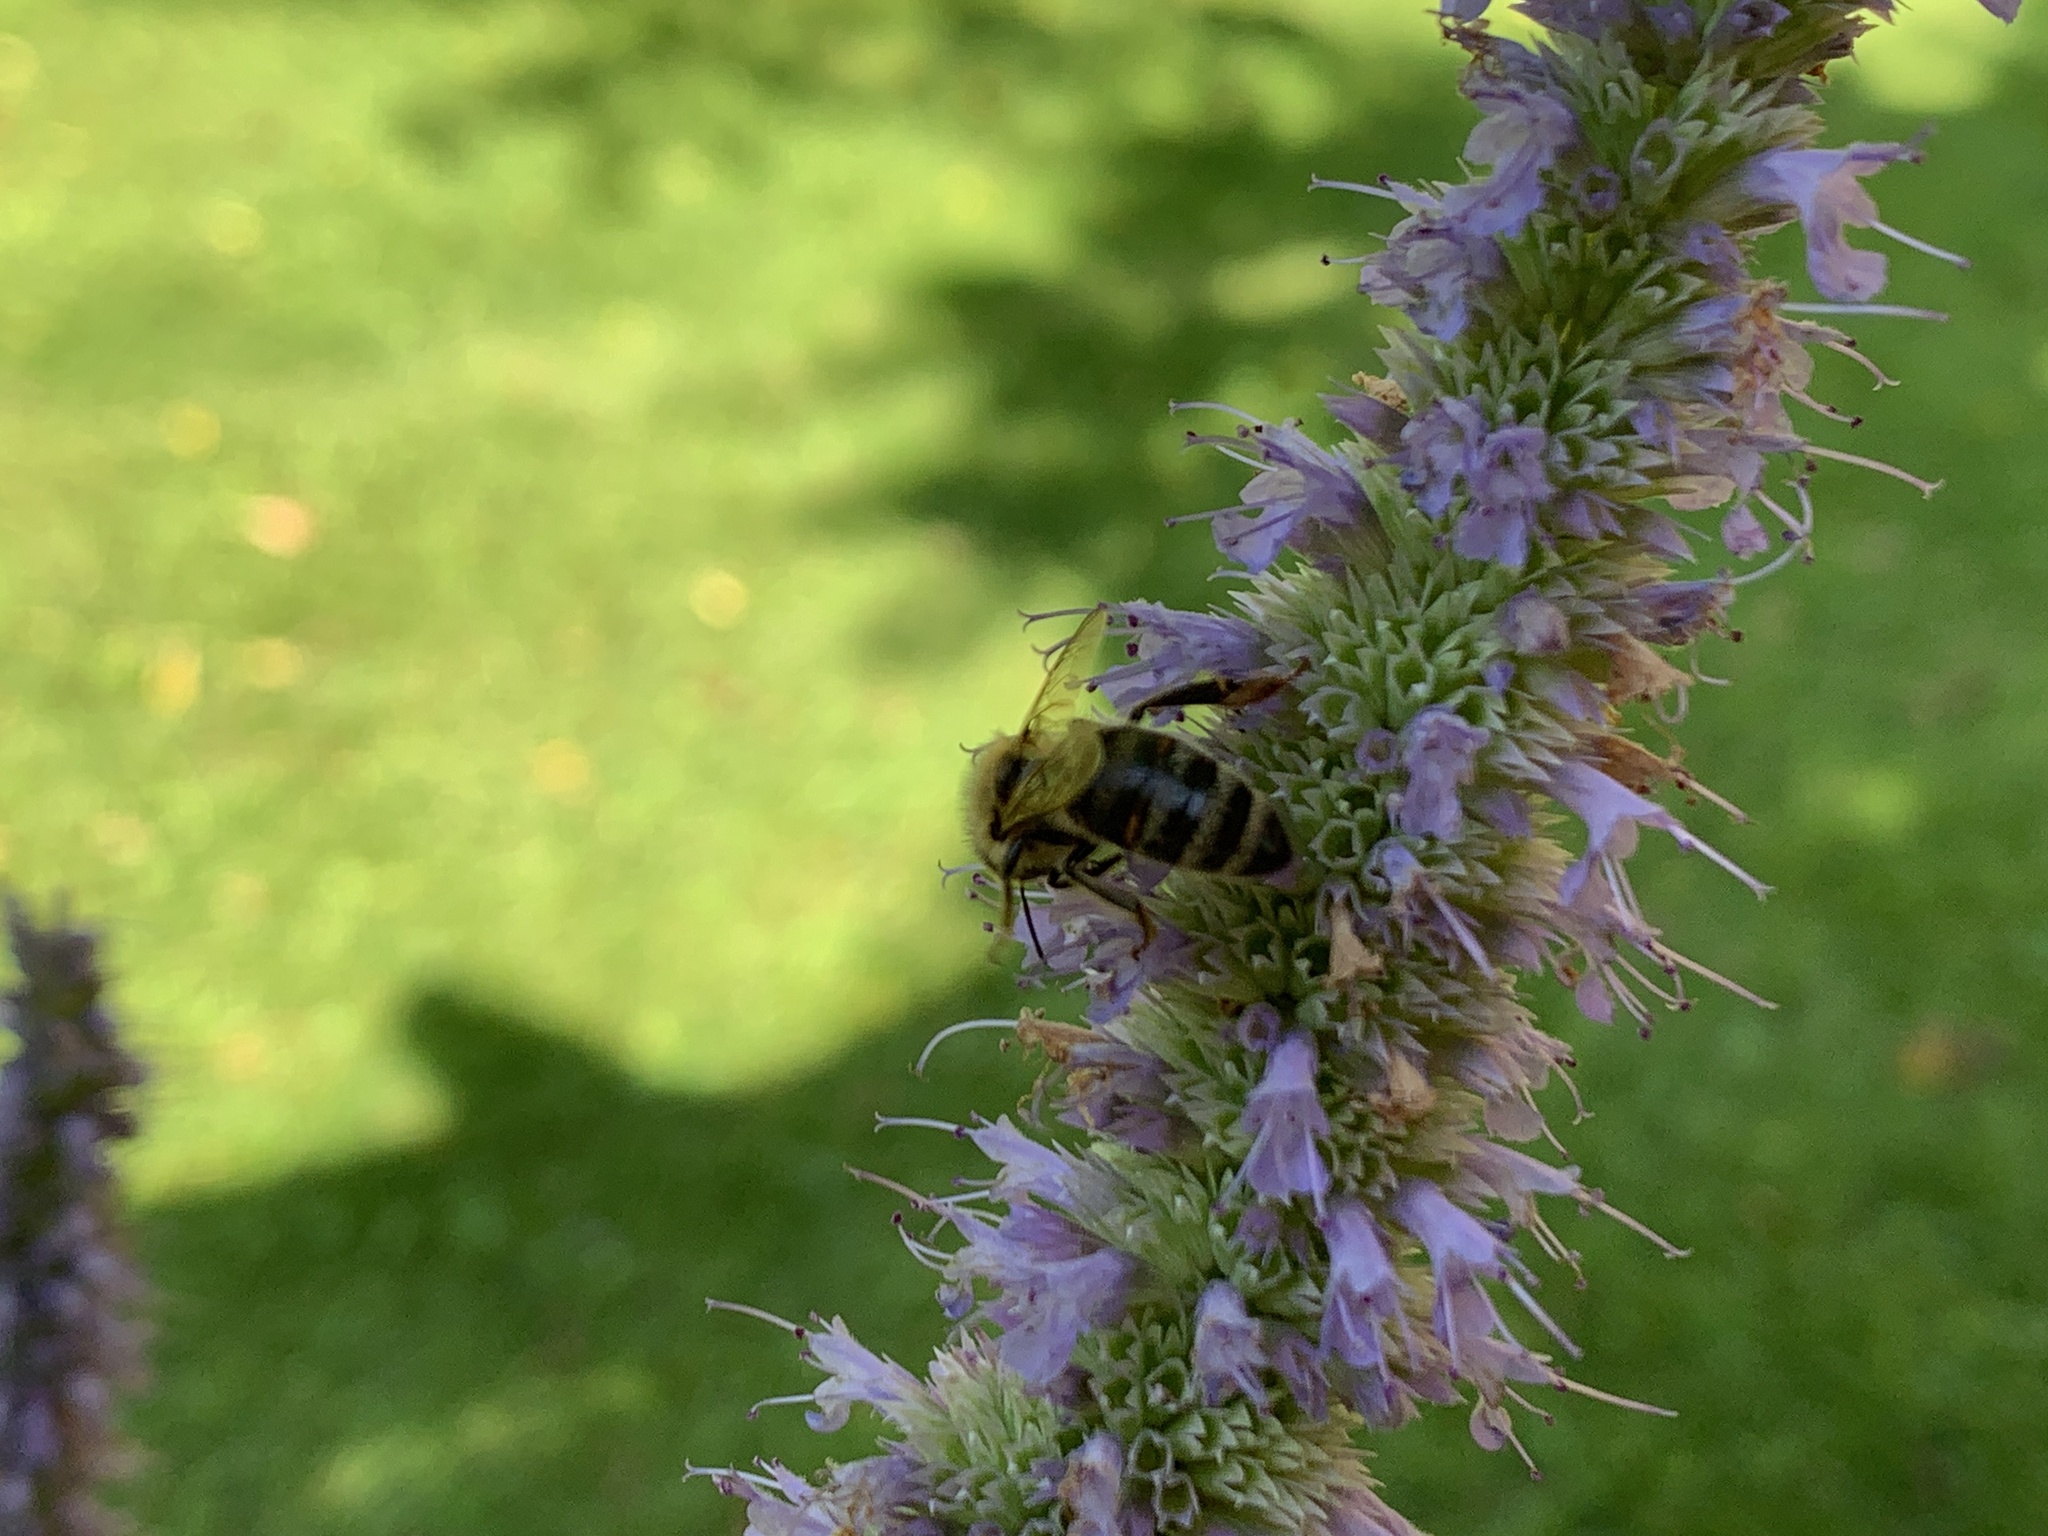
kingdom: Animalia
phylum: Arthropoda
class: Insecta
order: Hymenoptera
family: Apidae
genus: Apis
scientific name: Apis mellifera
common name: Honey bee
